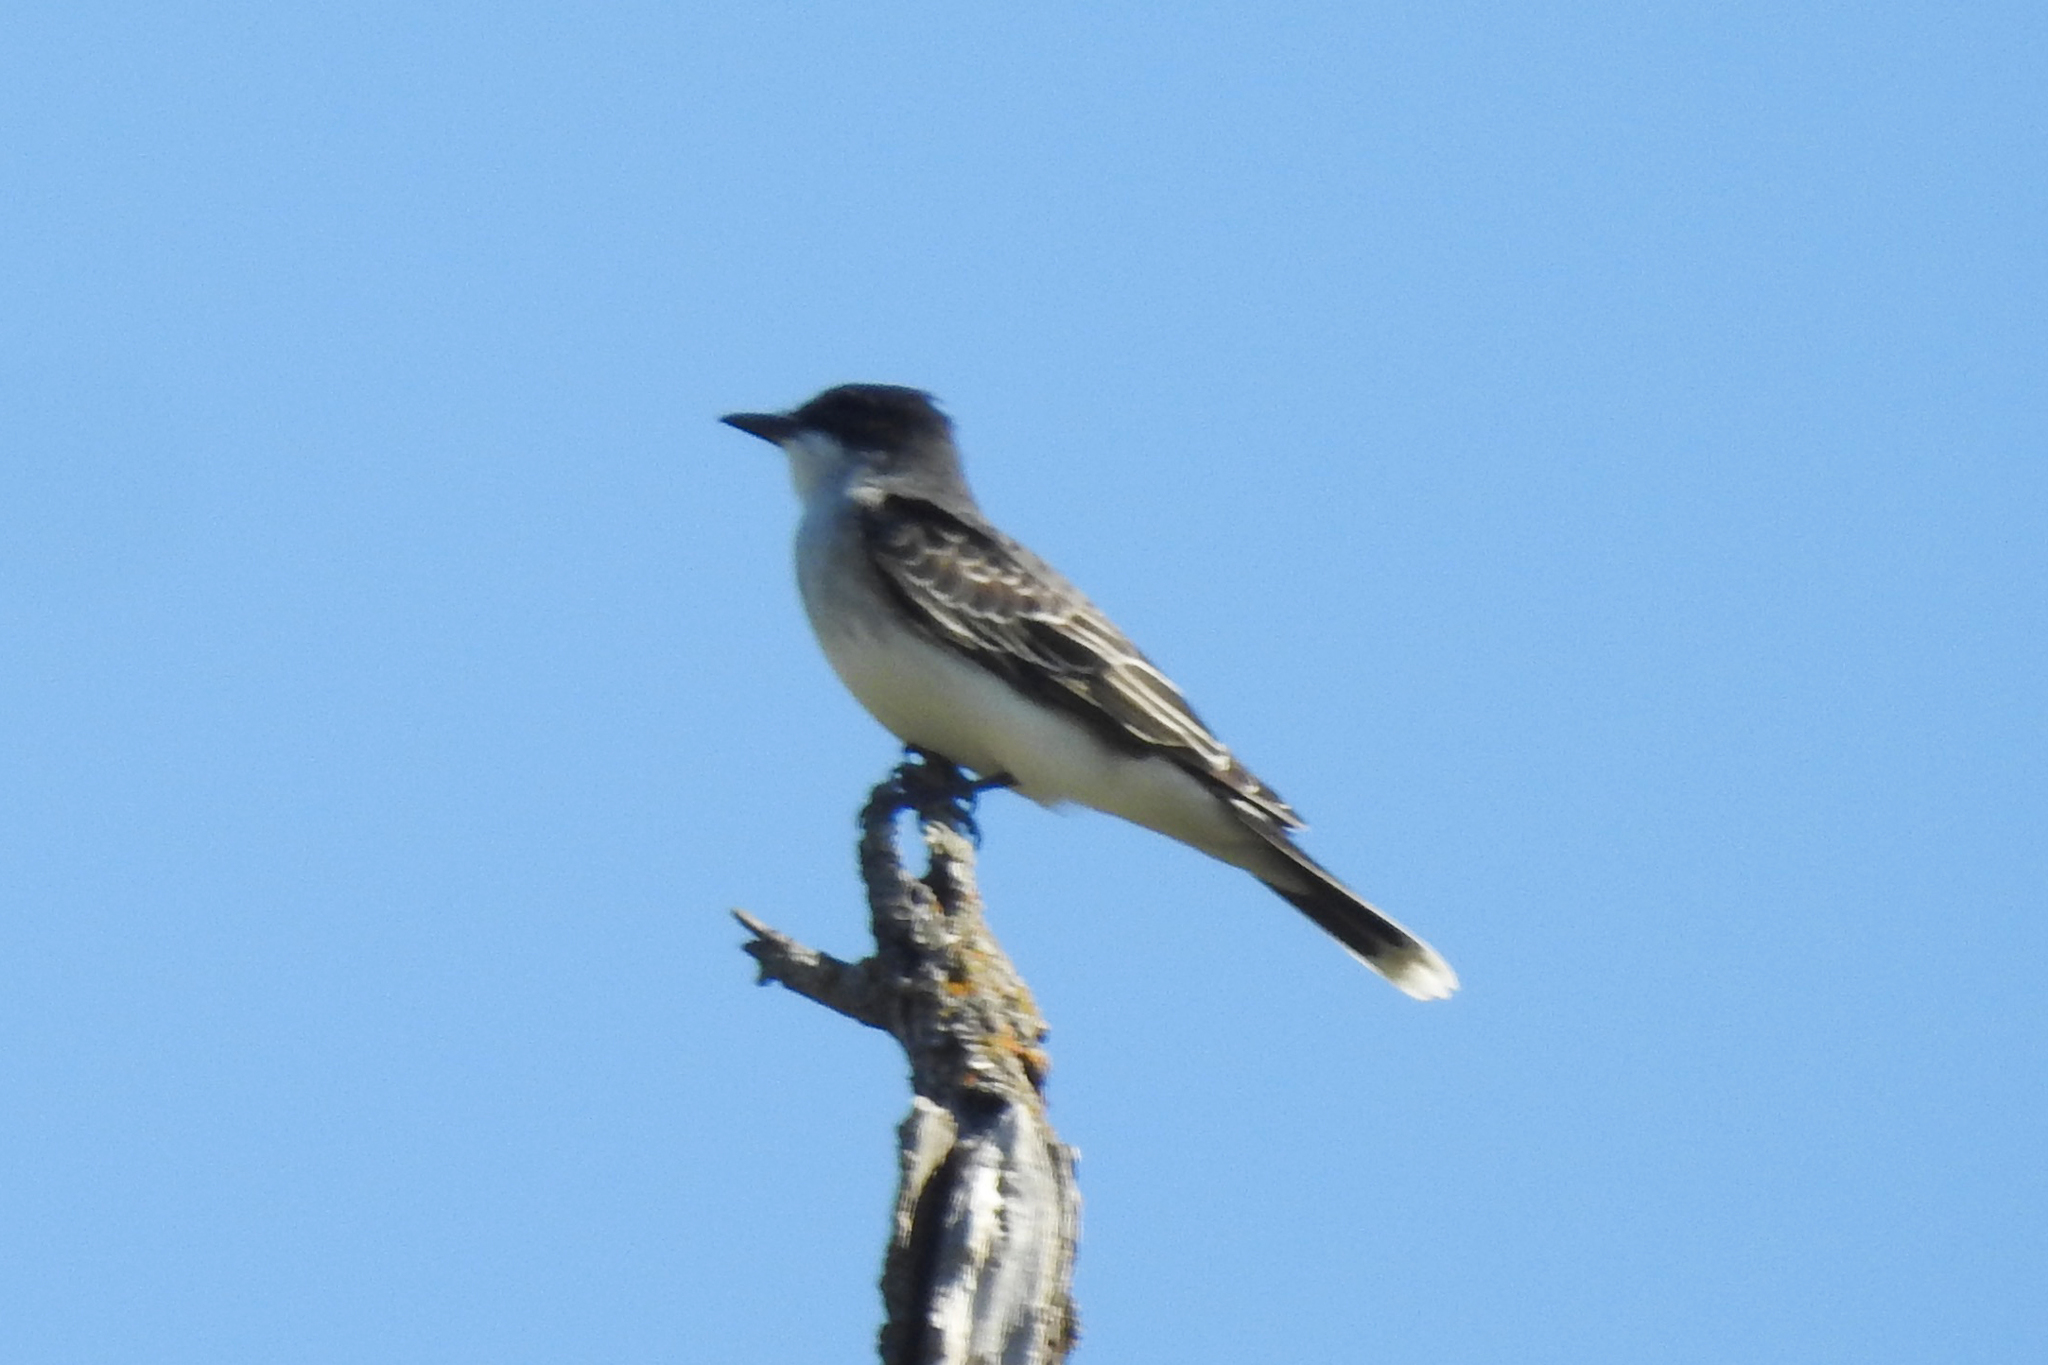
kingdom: Animalia
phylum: Chordata
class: Aves
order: Passeriformes
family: Tyrannidae
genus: Tyrannus
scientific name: Tyrannus tyrannus
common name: Eastern kingbird
